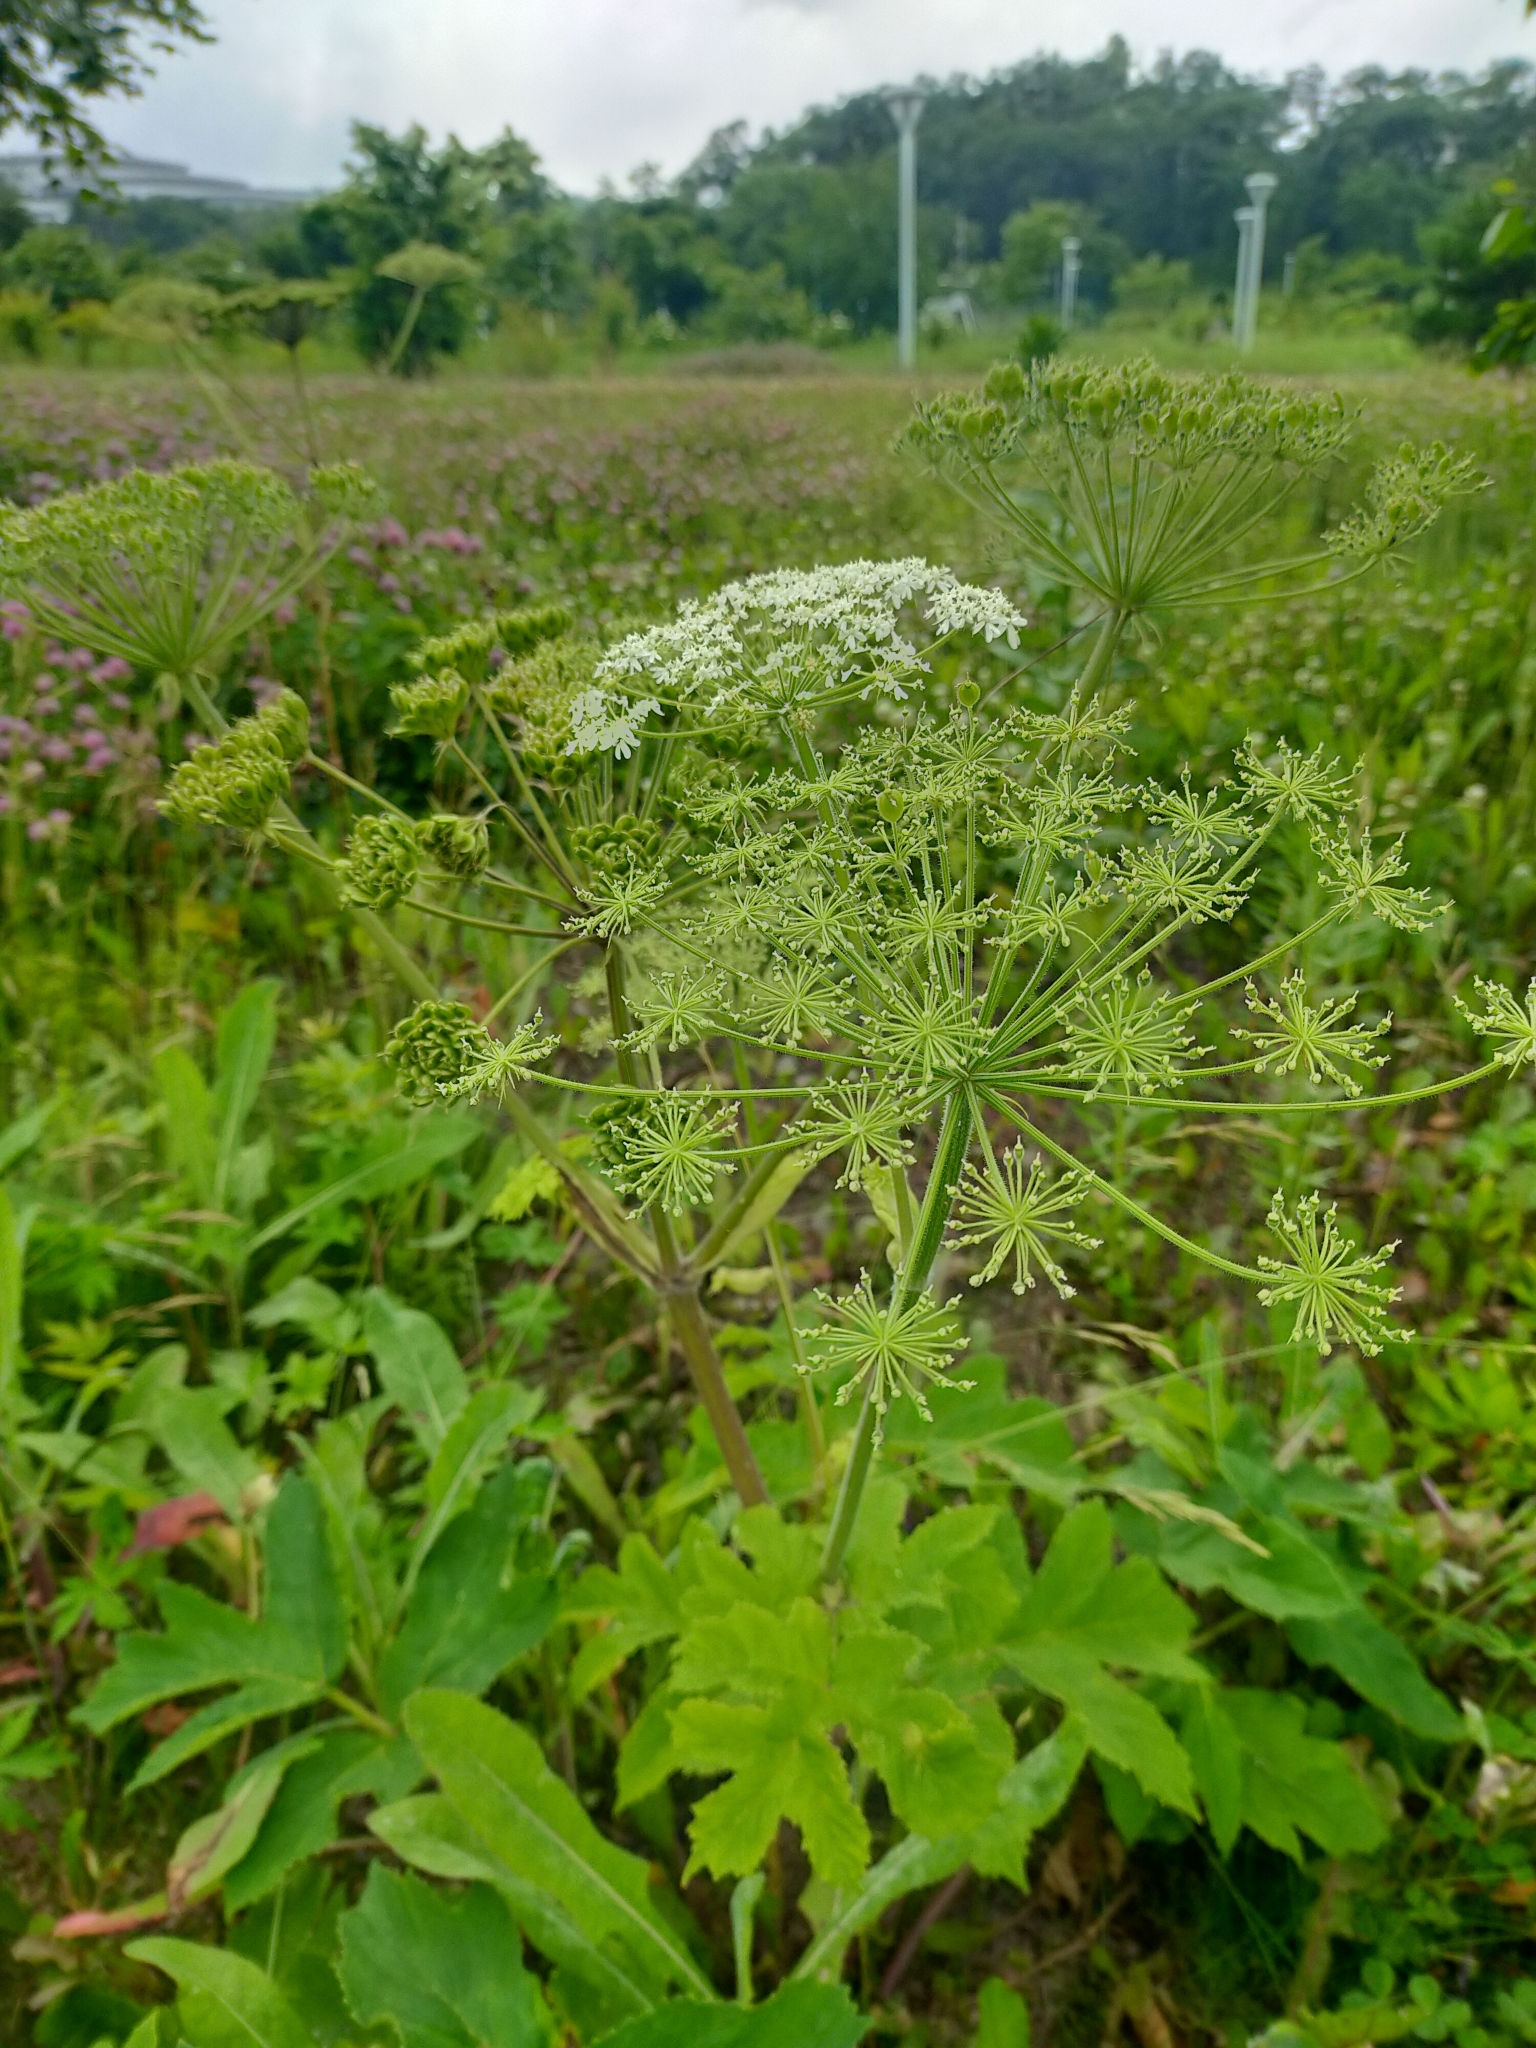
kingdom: Plantae
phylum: Tracheophyta
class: Magnoliopsida
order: Apiales
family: Apiaceae
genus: Heracleum
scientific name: Heracleum dissectum
